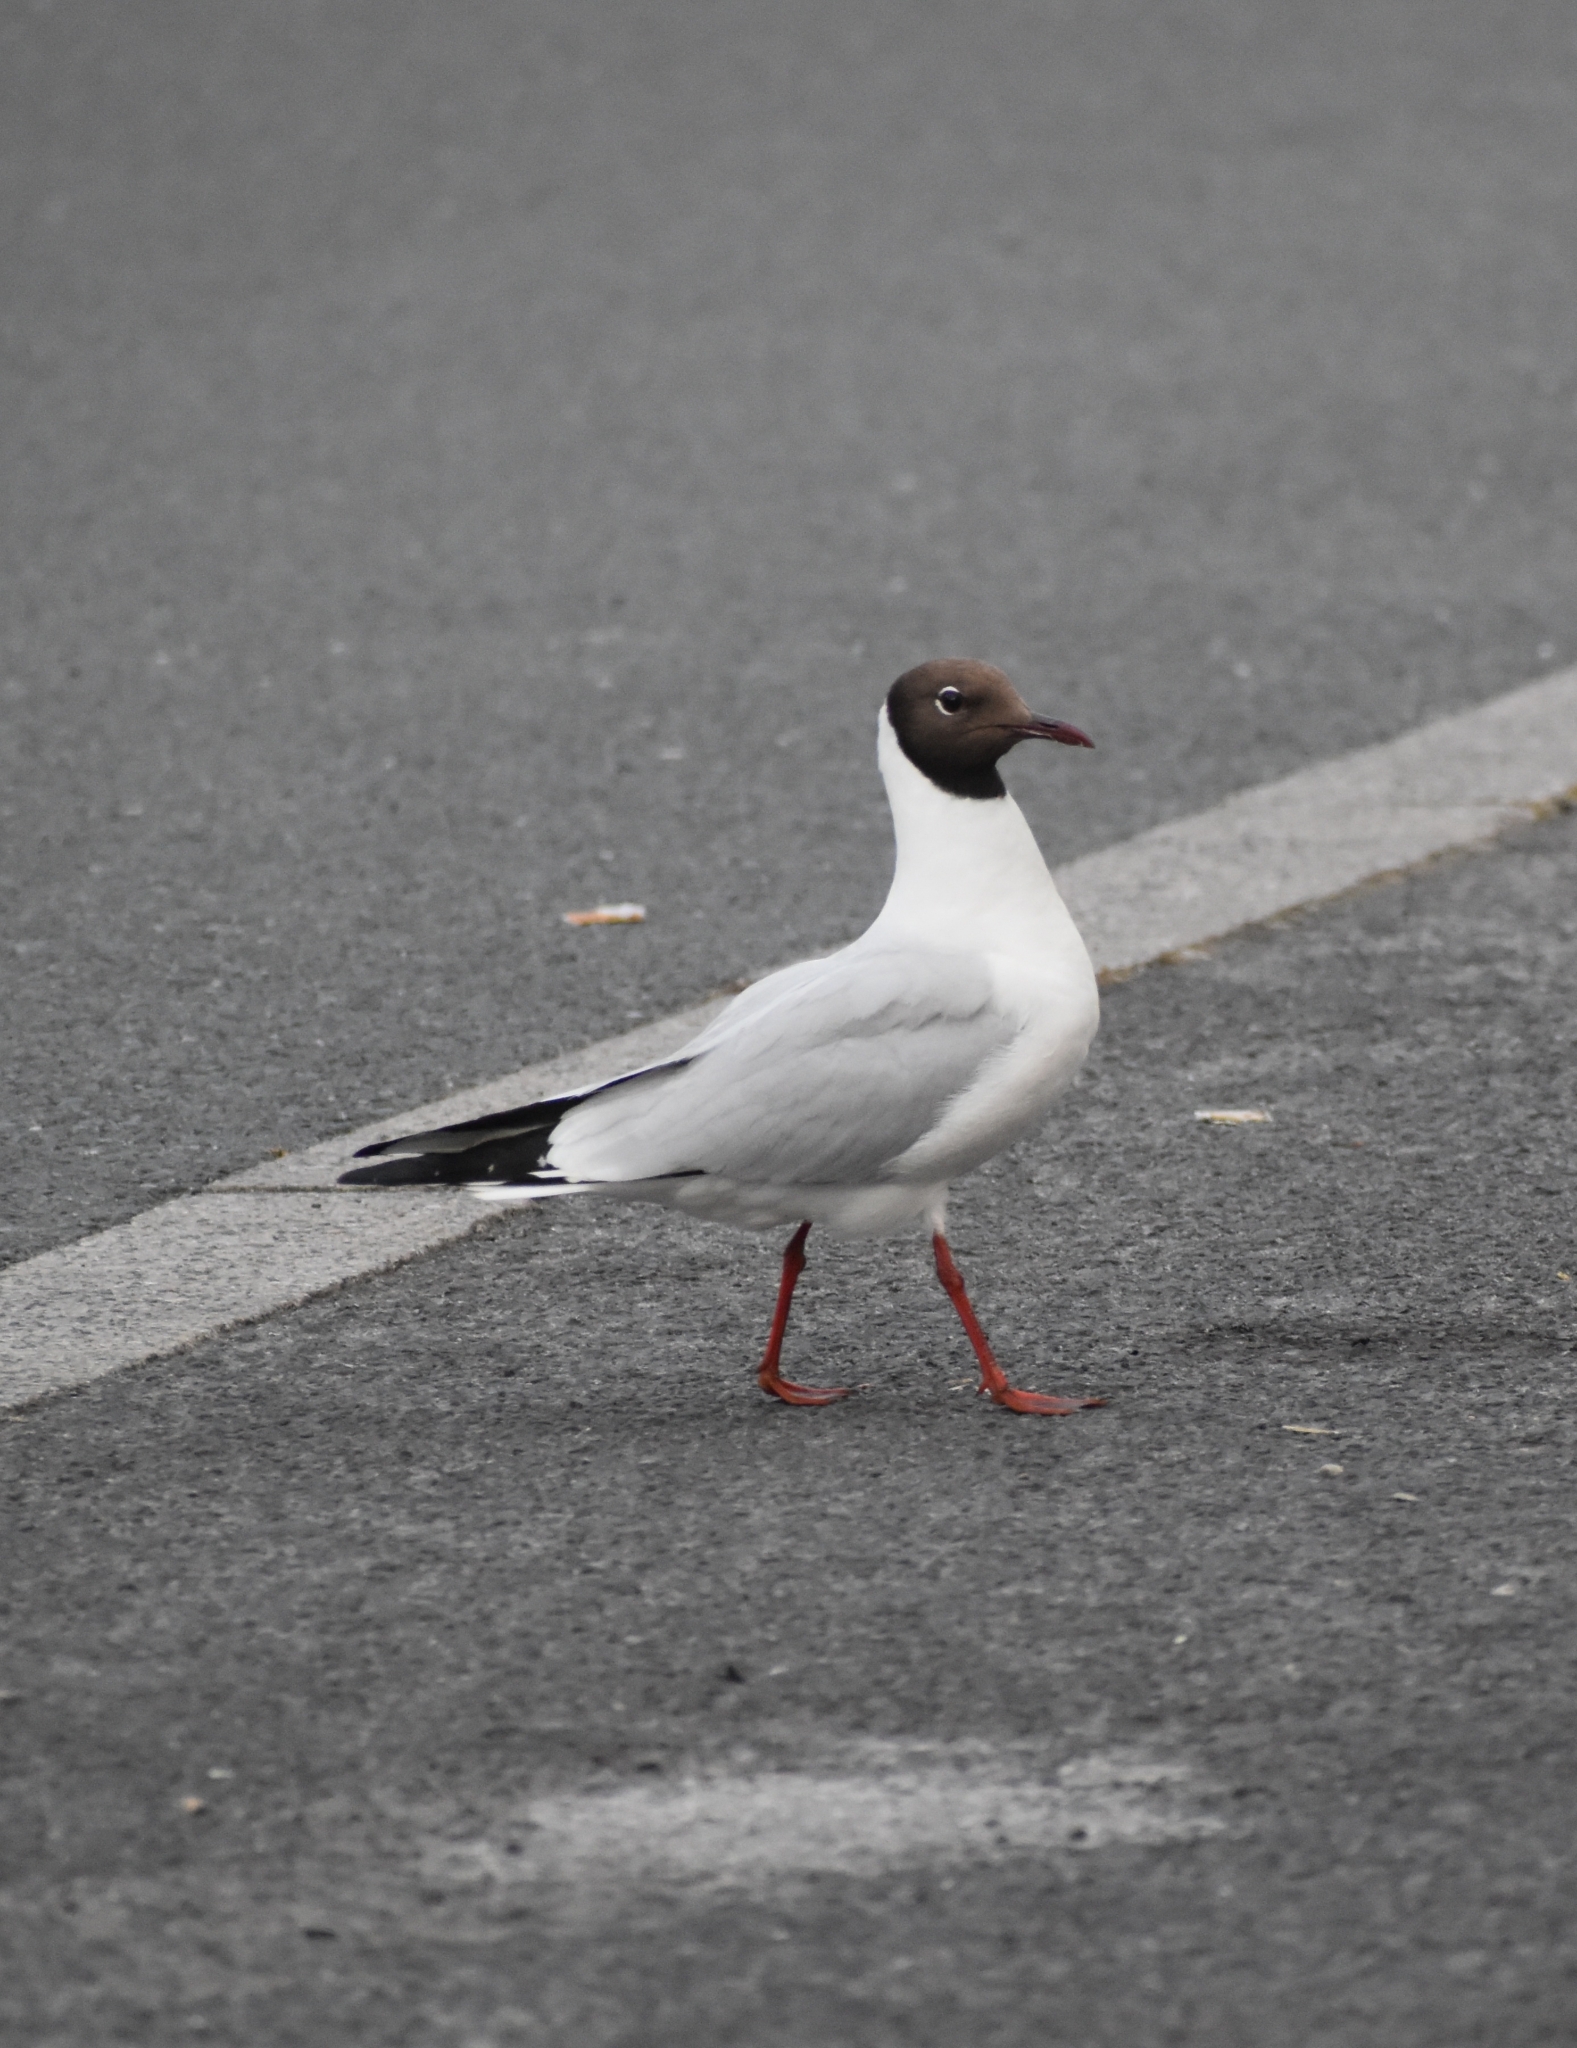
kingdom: Animalia
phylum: Chordata
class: Aves
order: Charadriiformes
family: Laridae
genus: Chroicocephalus
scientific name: Chroicocephalus ridibundus
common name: Black-headed gull
